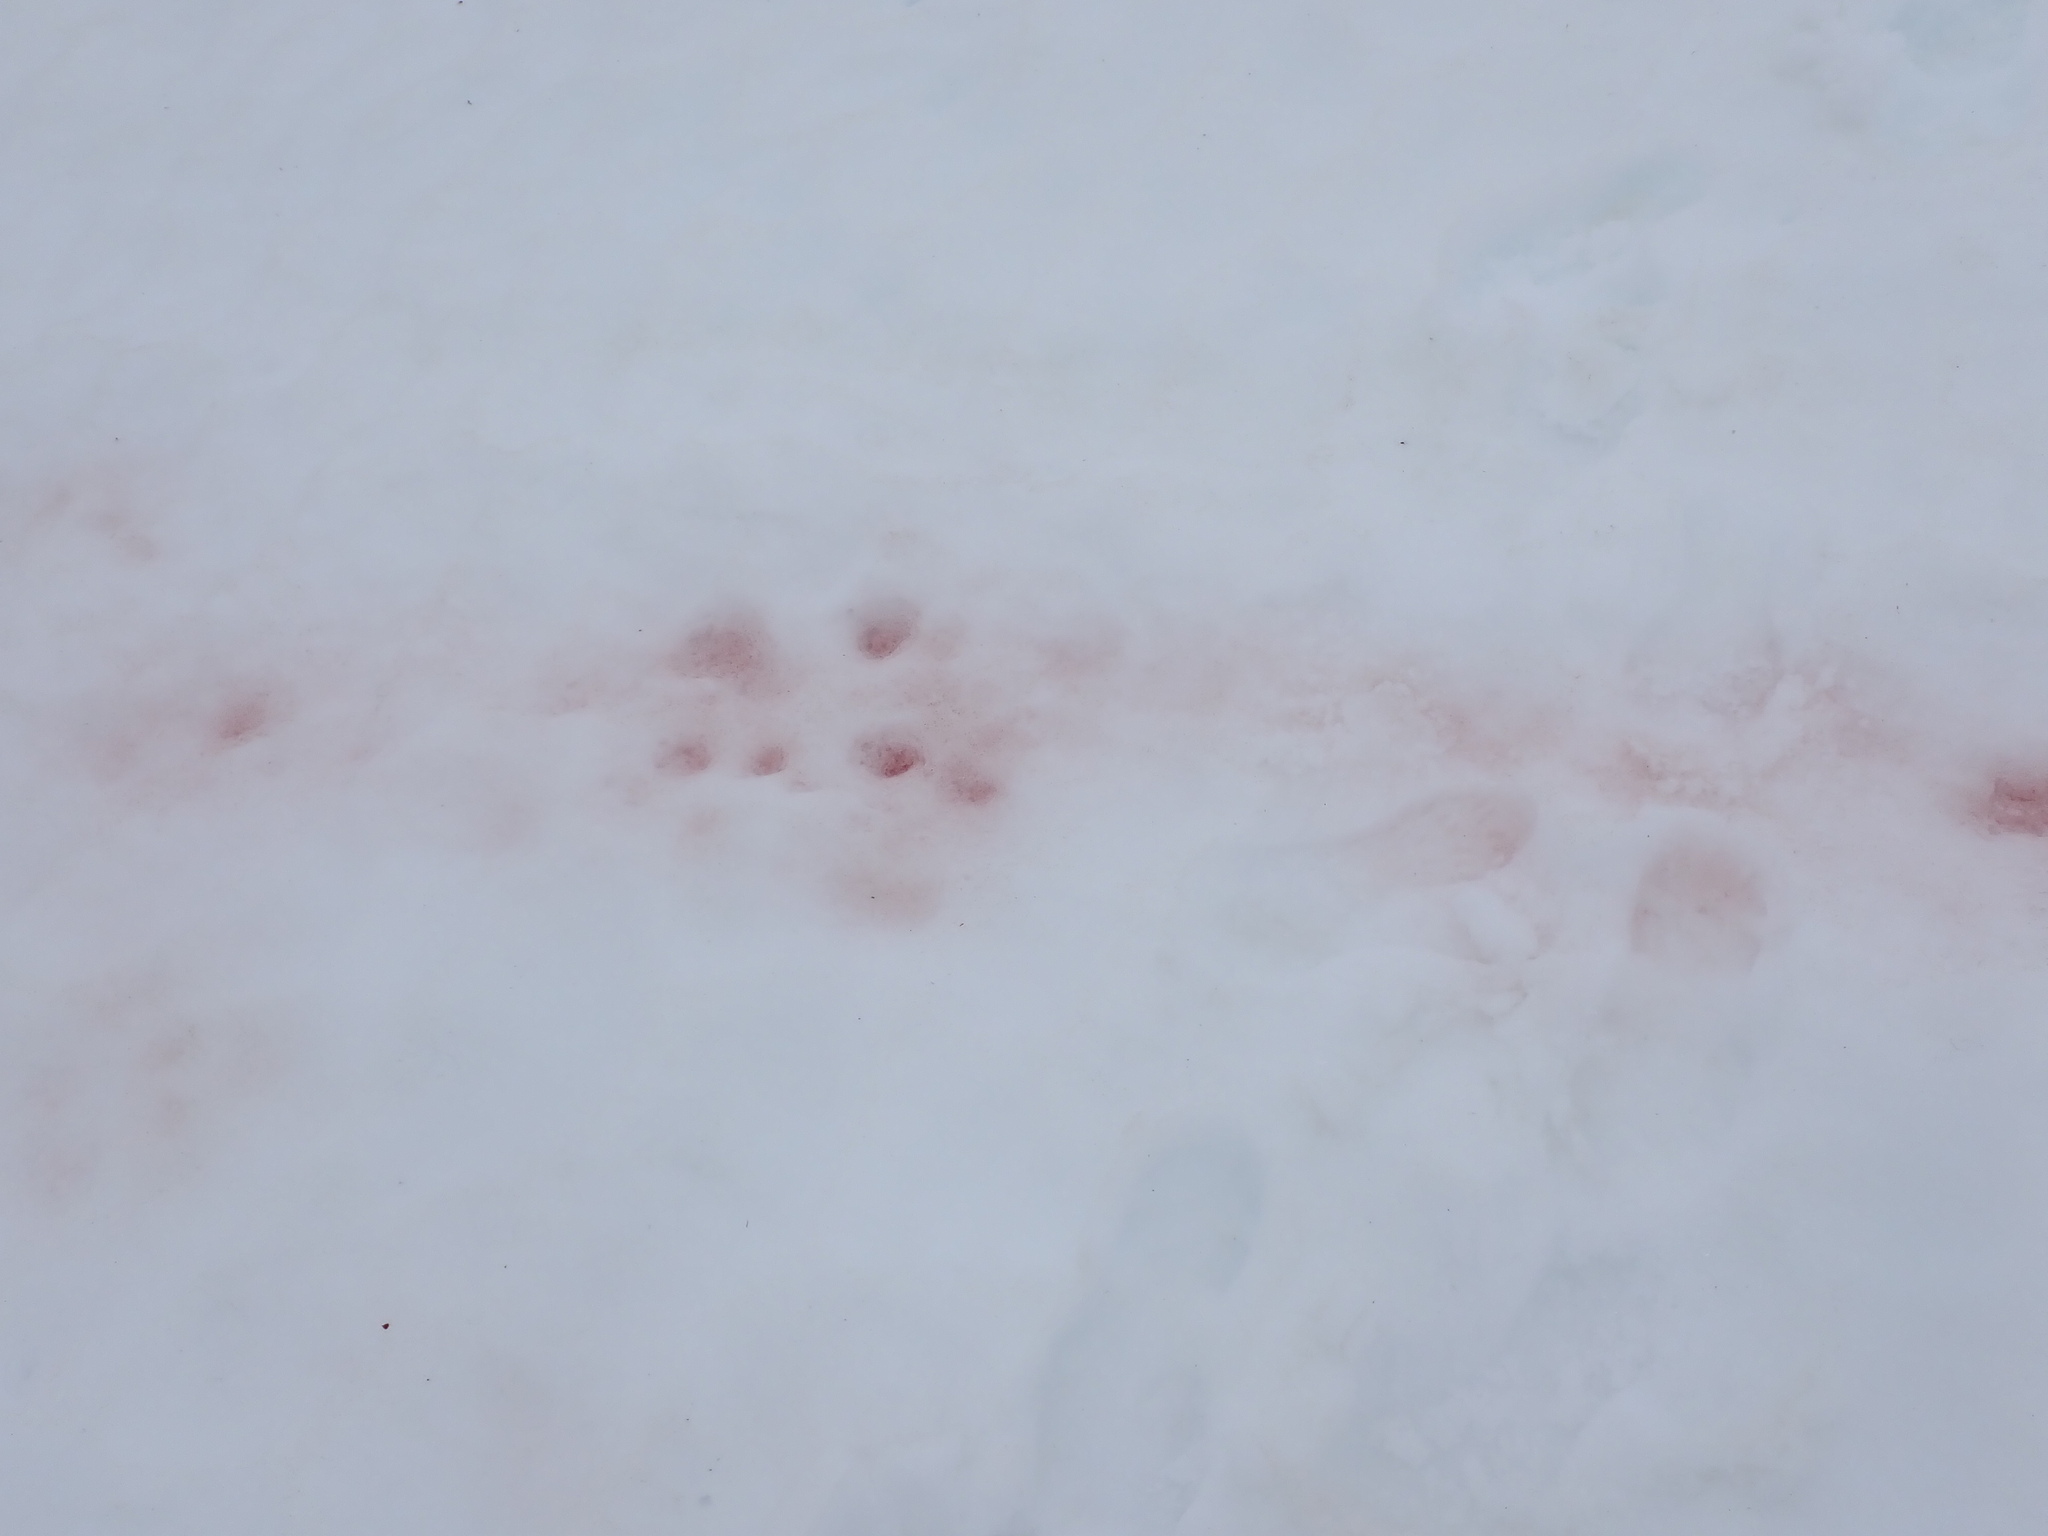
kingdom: Plantae
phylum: Chlorophyta
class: Chlorophyceae
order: Volvocales
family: Chlamydomonadaceae
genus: Chlamydomonas
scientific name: Chlamydomonas nivalis
